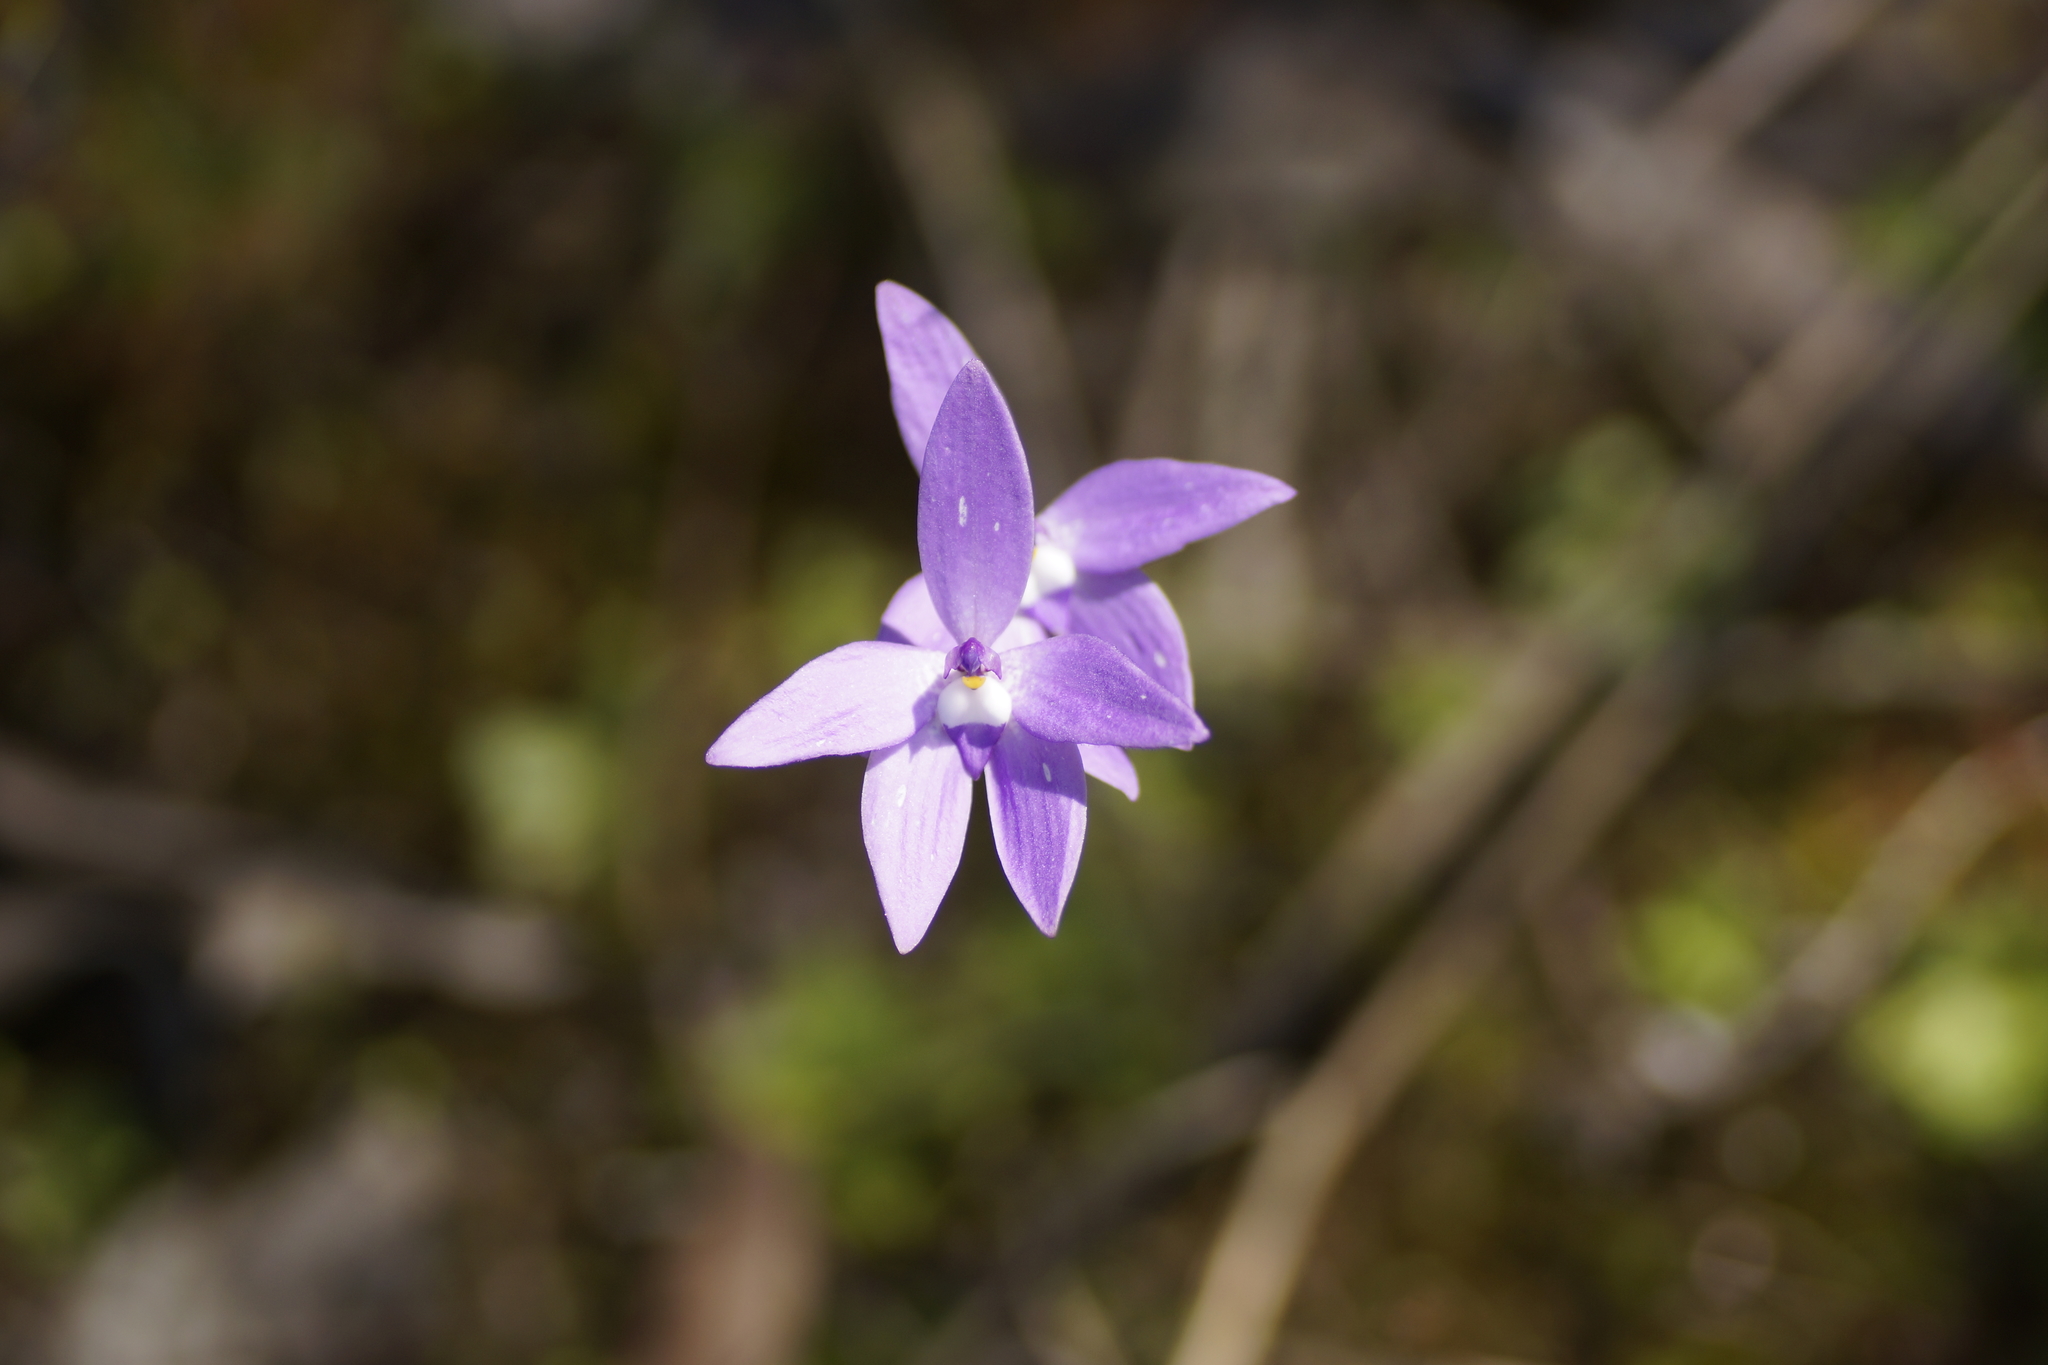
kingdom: Plantae
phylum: Tracheophyta
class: Liliopsida
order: Asparagales
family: Orchidaceae
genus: Caladenia
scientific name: Caladenia major
